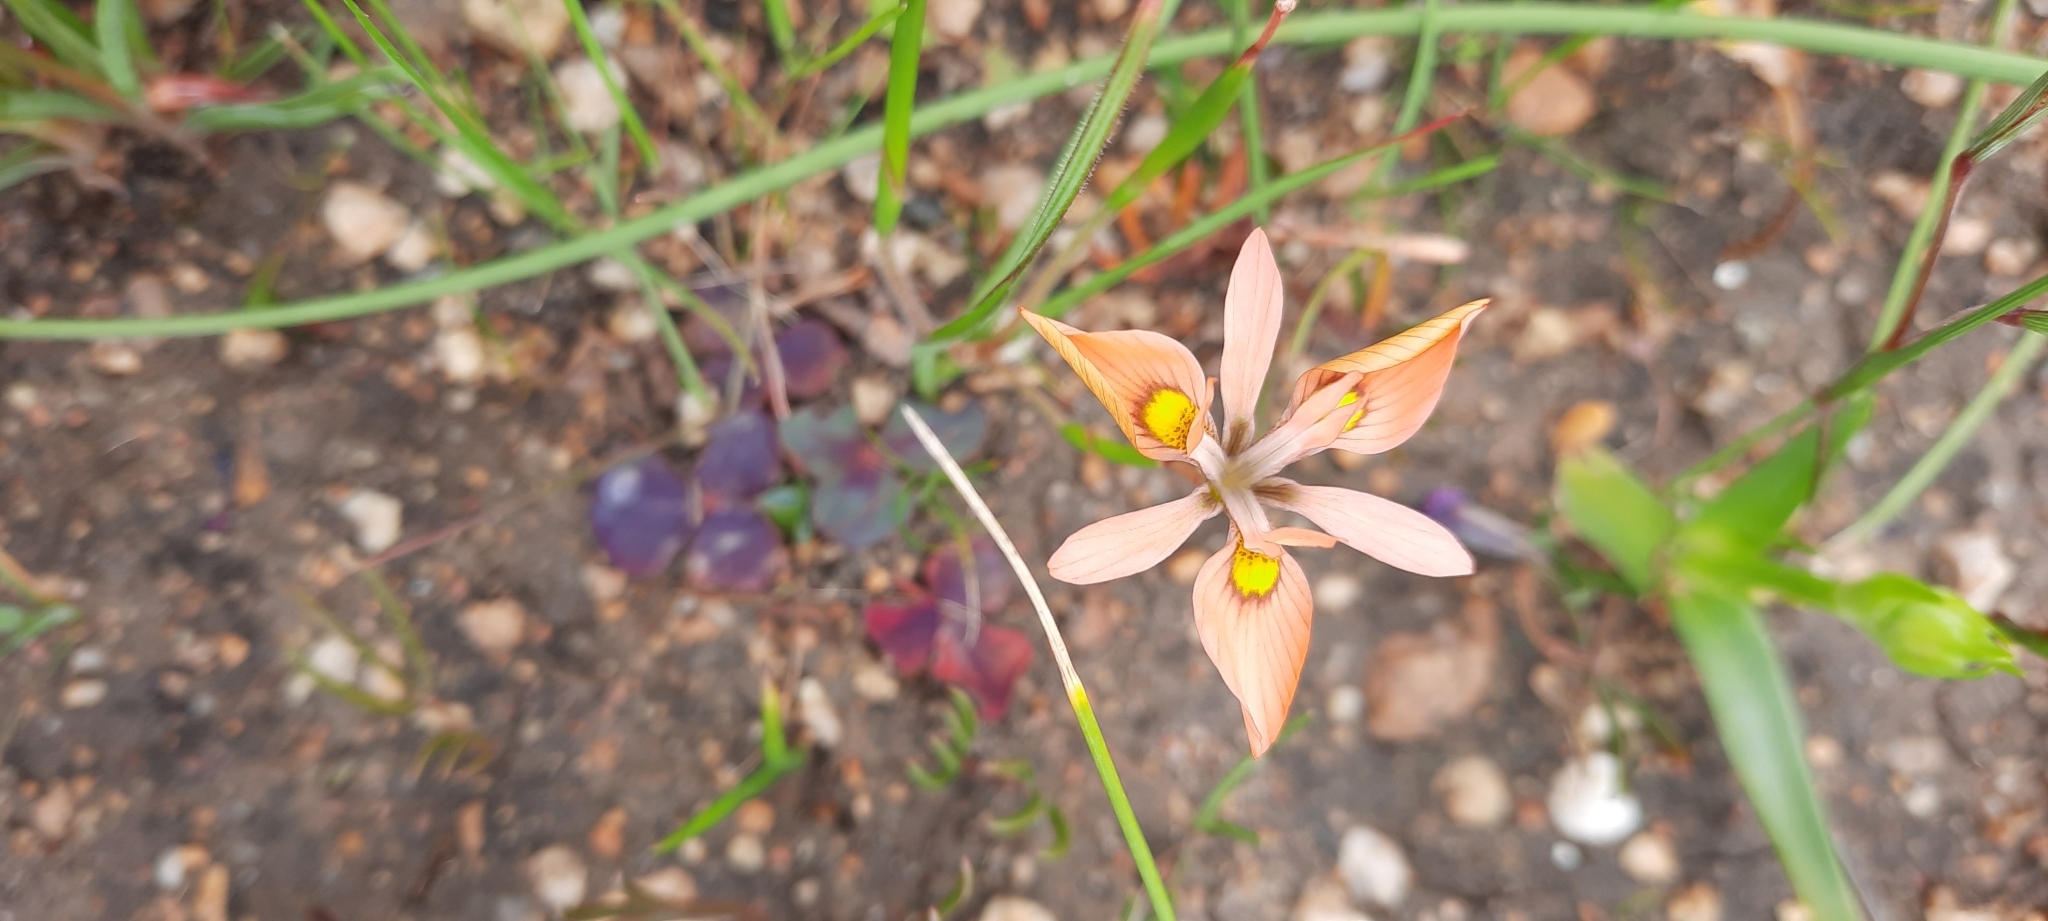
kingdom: Plantae
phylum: Tracheophyta
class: Liliopsida
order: Asparagales
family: Iridaceae
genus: Moraea
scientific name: Moraea papilionacea
